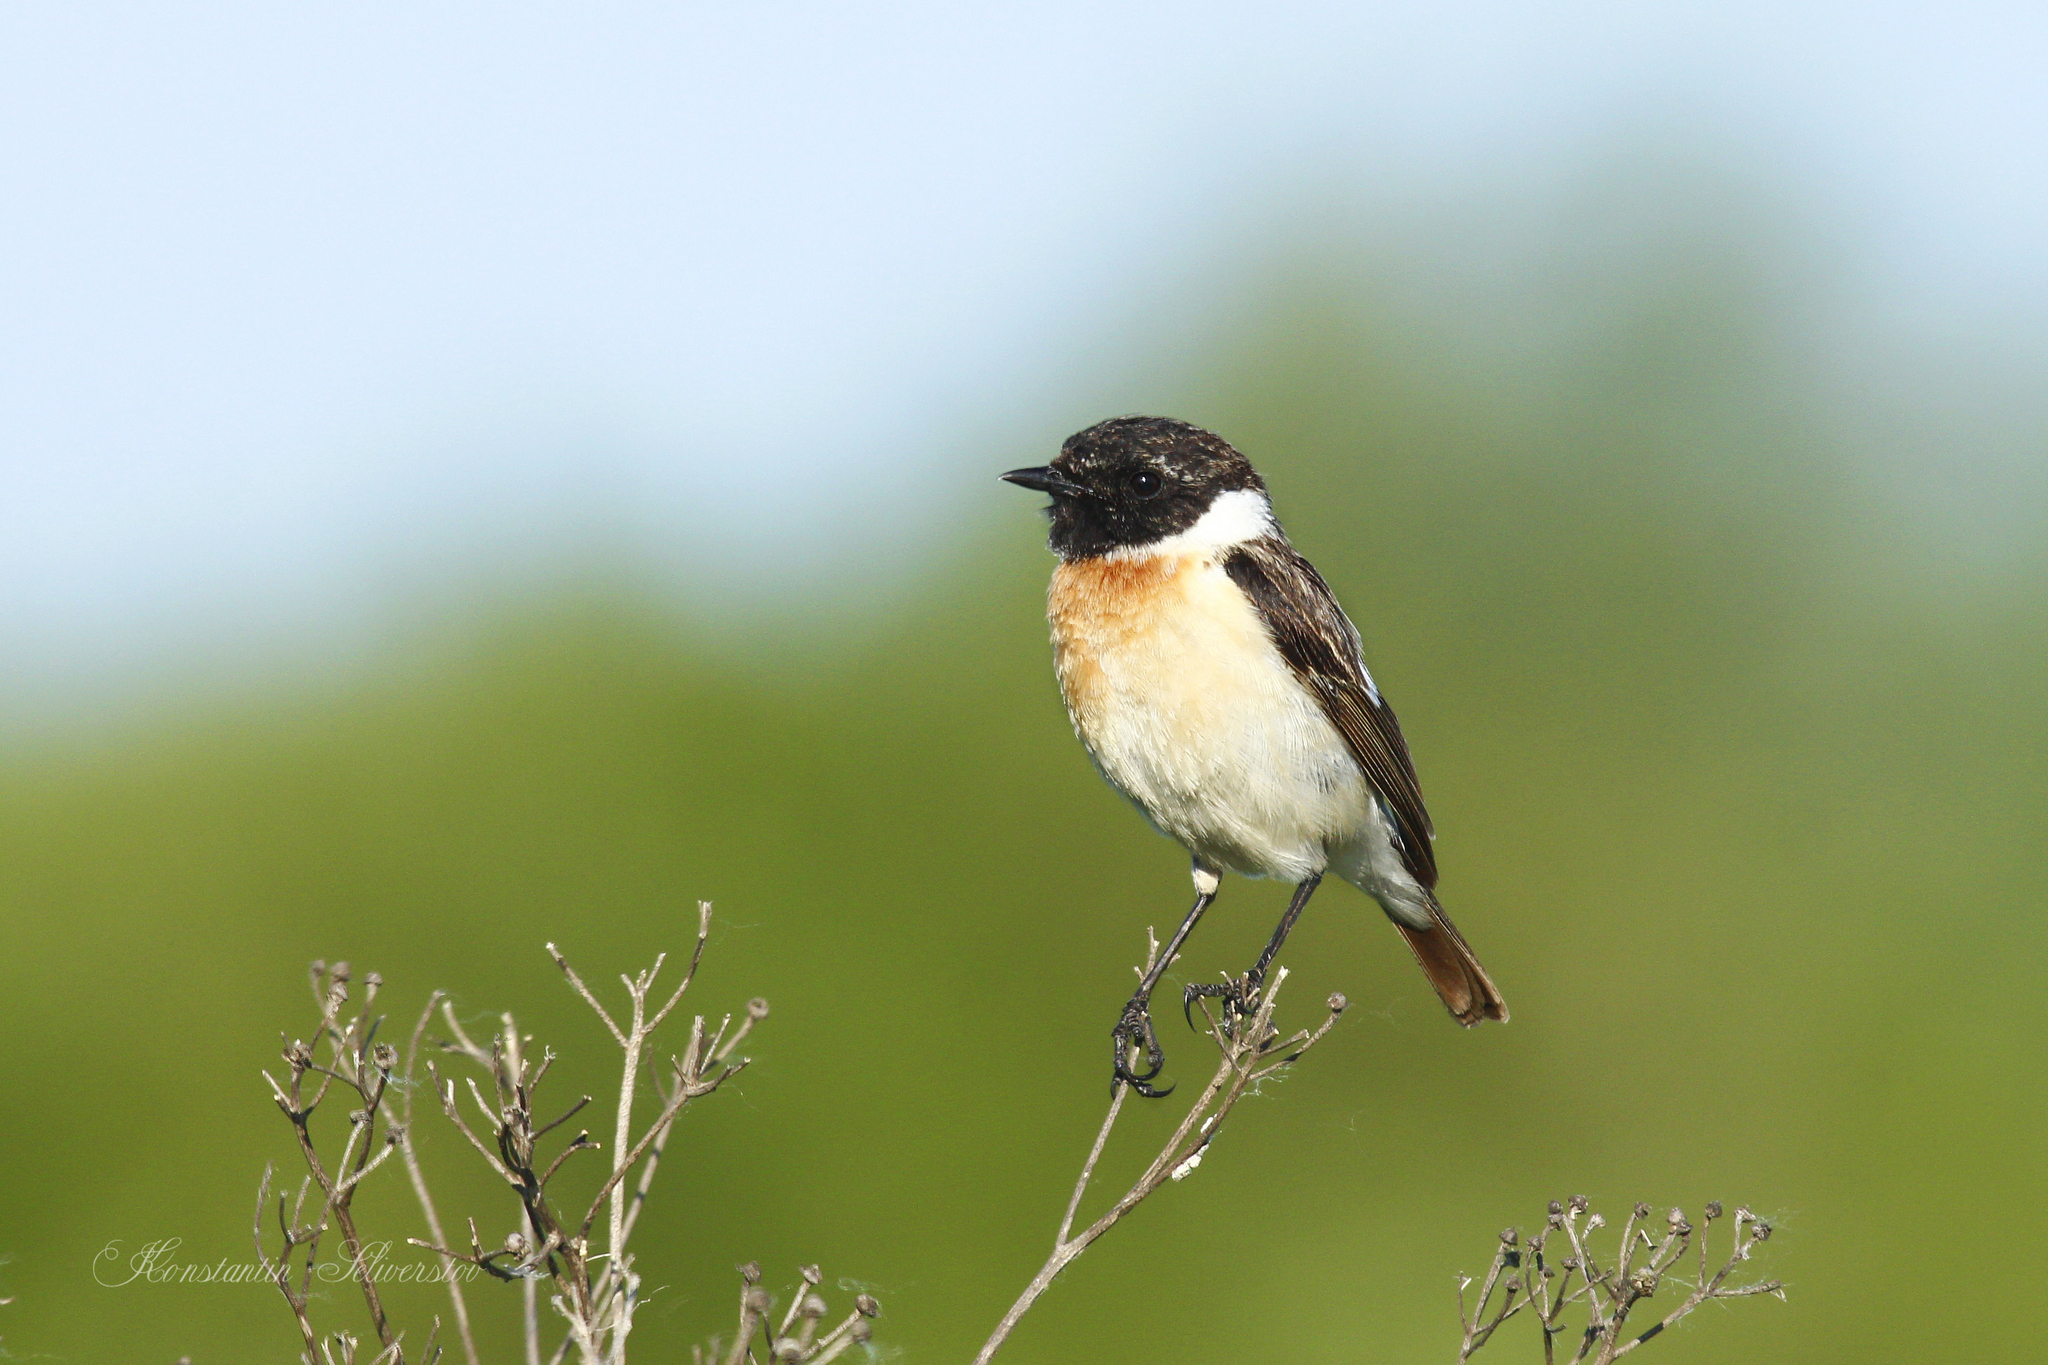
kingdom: Animalia
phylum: Chordata
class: Aves
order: Passeriformes
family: Muscicapidae
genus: Saxicola
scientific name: Saxicola maurus
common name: Siberian stonechat
